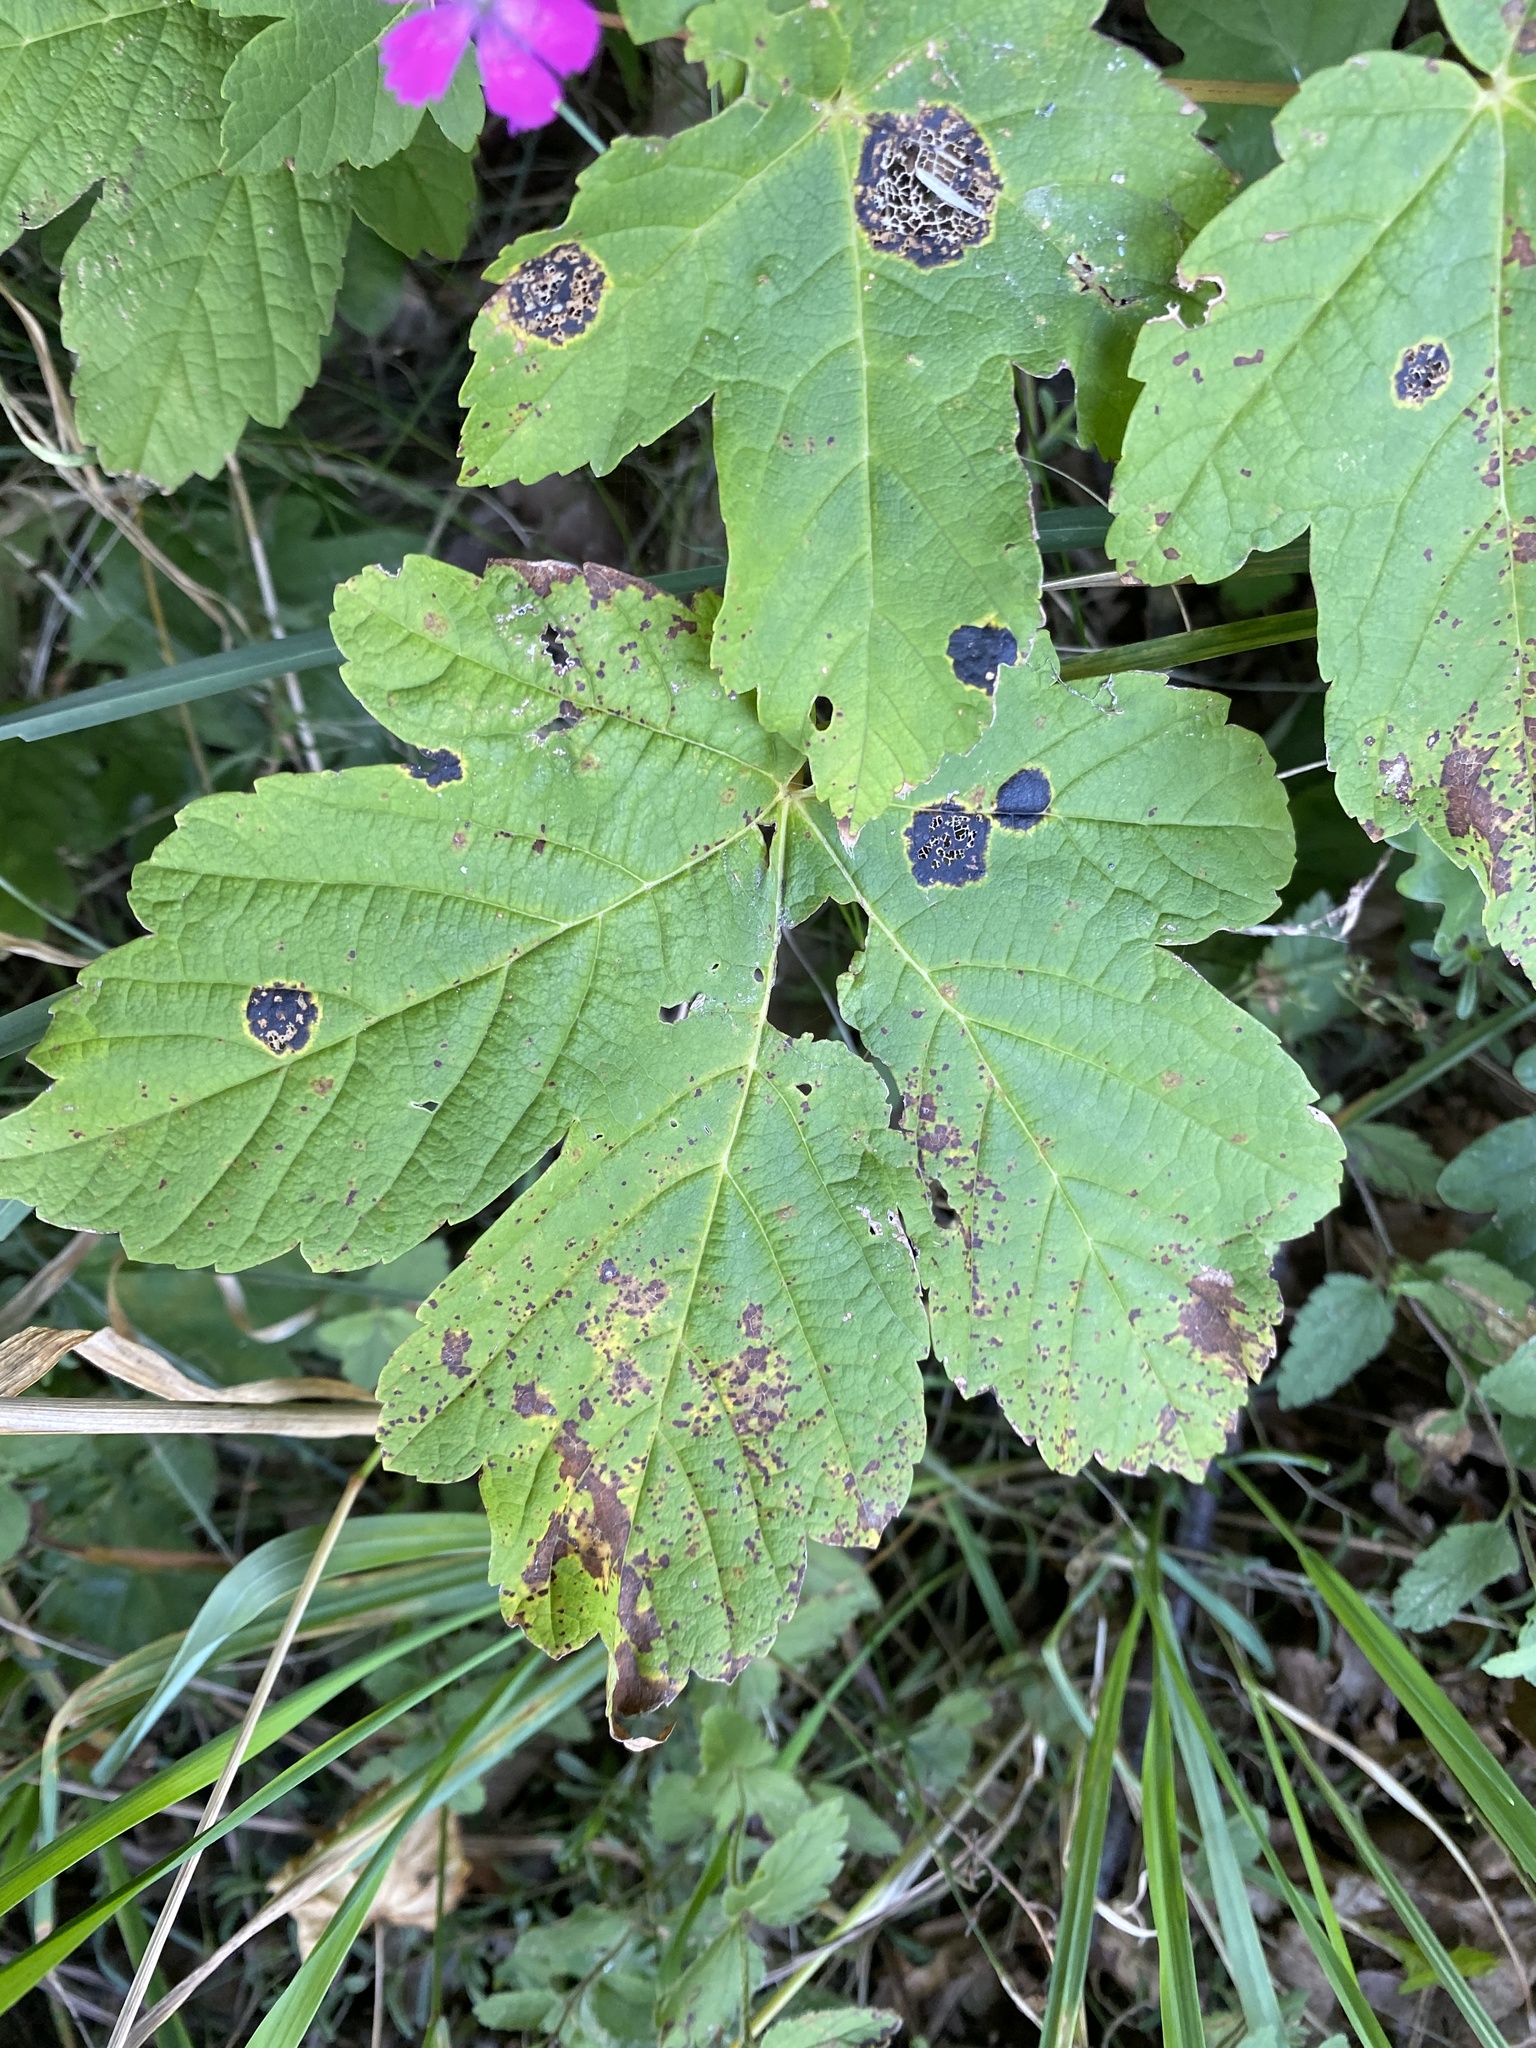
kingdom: Fungi
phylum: Ascomycota
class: Leotiomycetes
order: Rhytismatales
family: Rhytismataceae
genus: Rhytisma
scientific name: Rhytisma acerinum
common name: European tar spot
